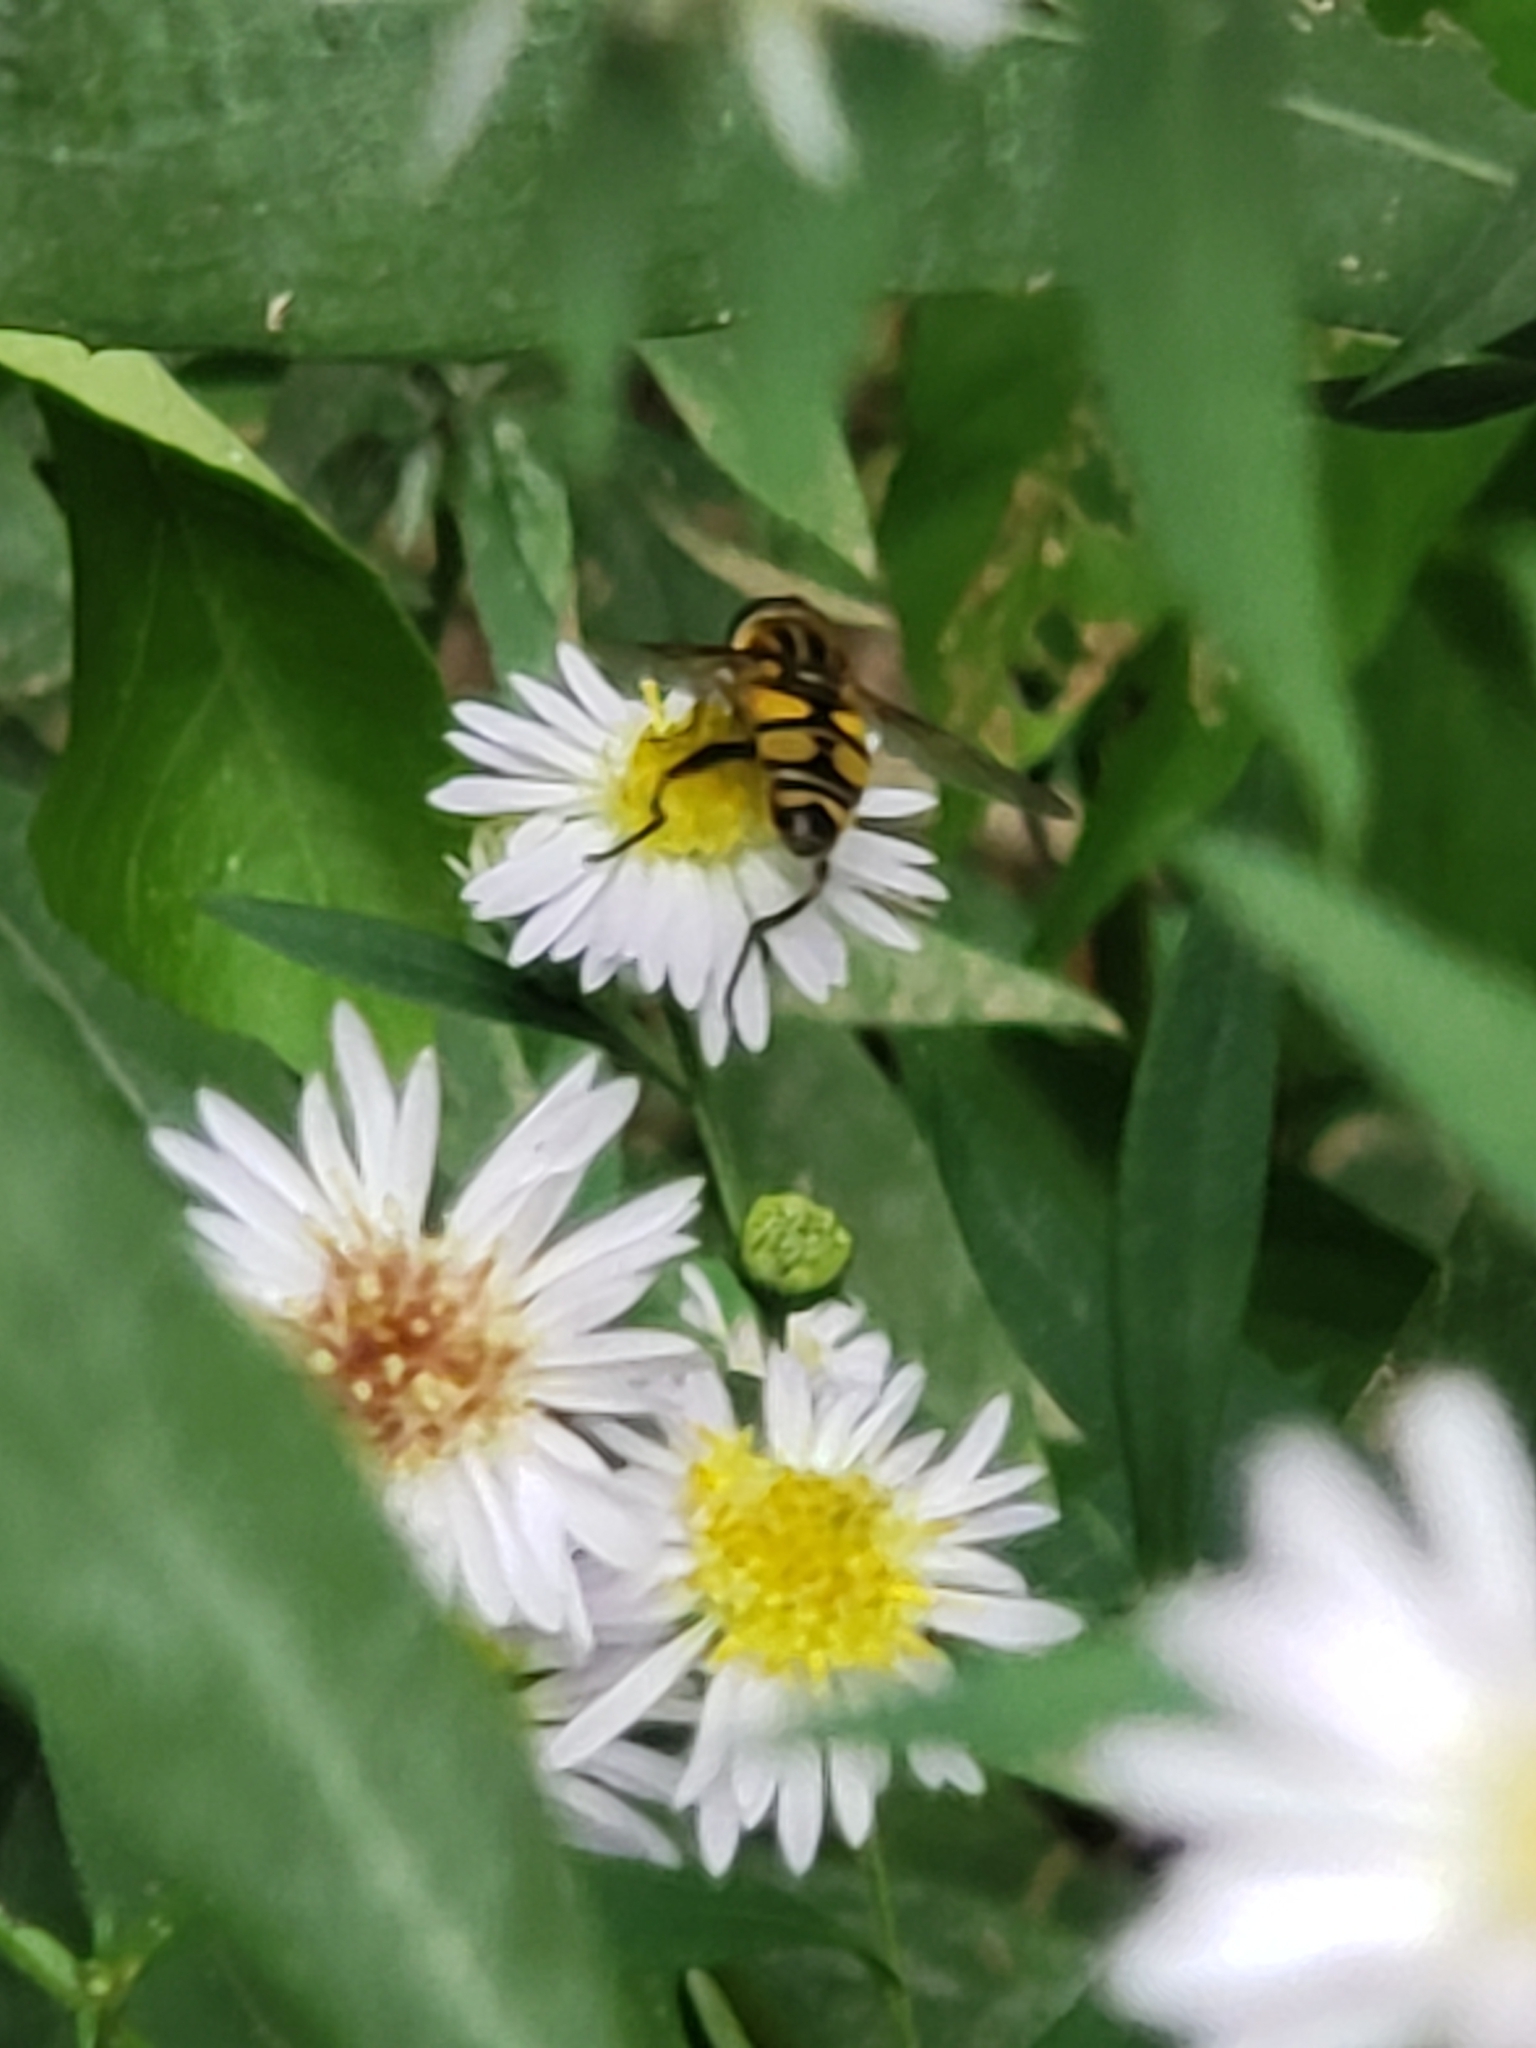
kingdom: Animalia
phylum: Arthropoda
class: Insecta
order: Diptera
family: Syrphidae
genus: Helophilus
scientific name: Helophilus fasciatus
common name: Narrow-headed marsh fly
